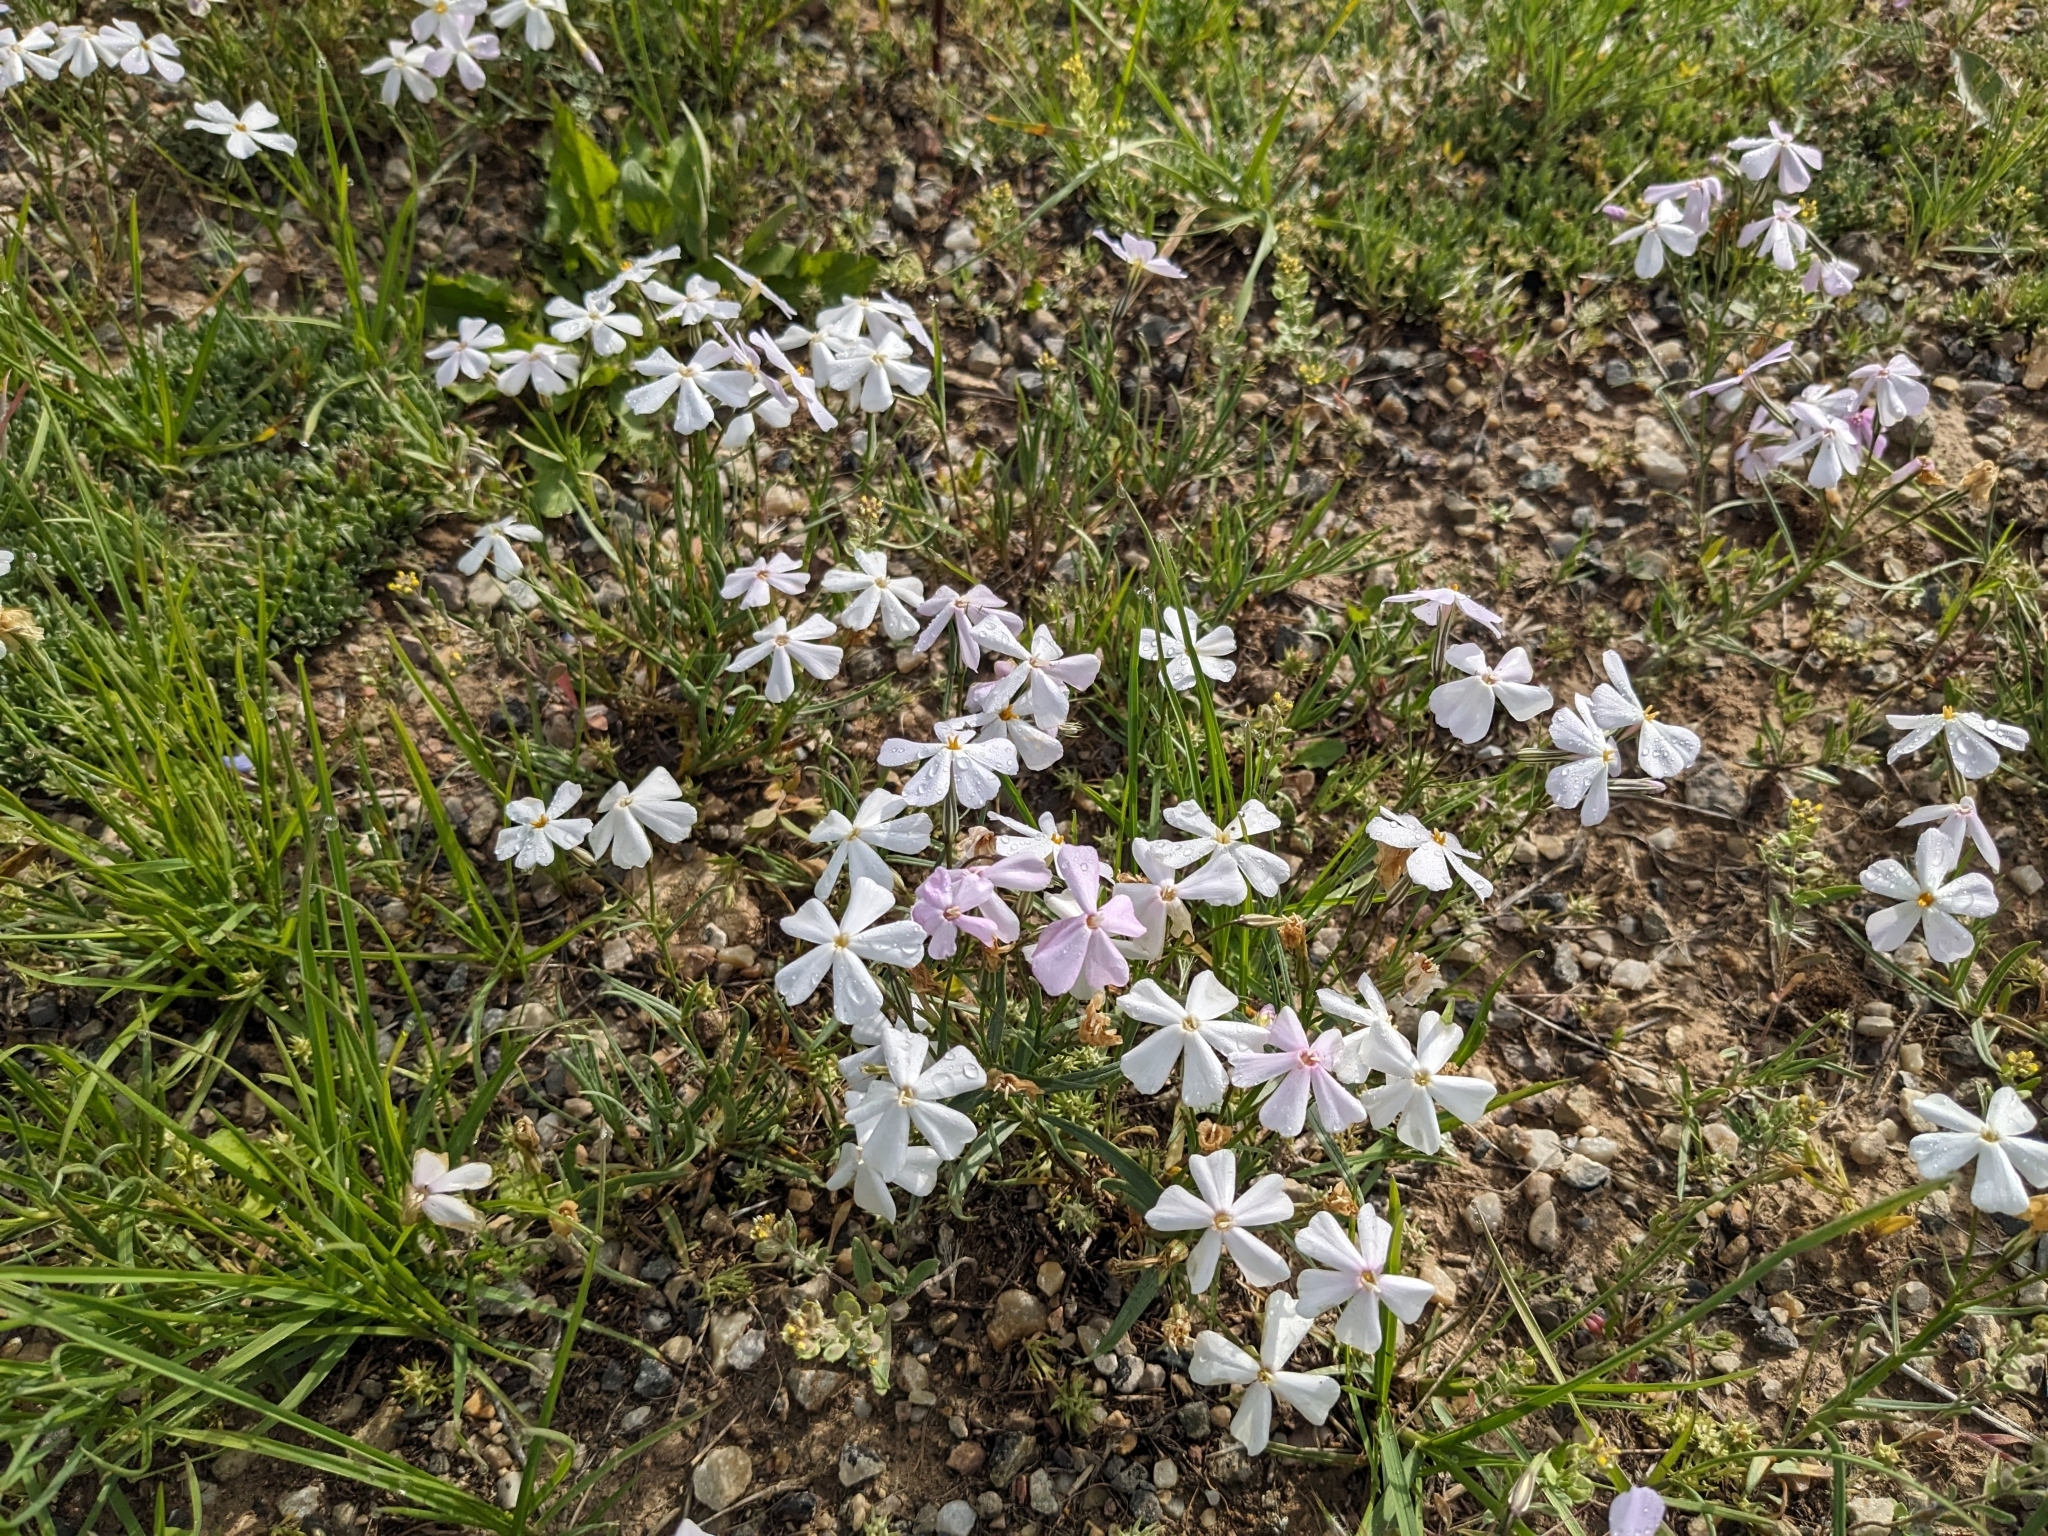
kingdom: Plantae
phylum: Tracheophyta
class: Magnoliopsida
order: Ericales
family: Polemoniaceae
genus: Phlox
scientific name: Phlox longifolia
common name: Longleaf phlox
